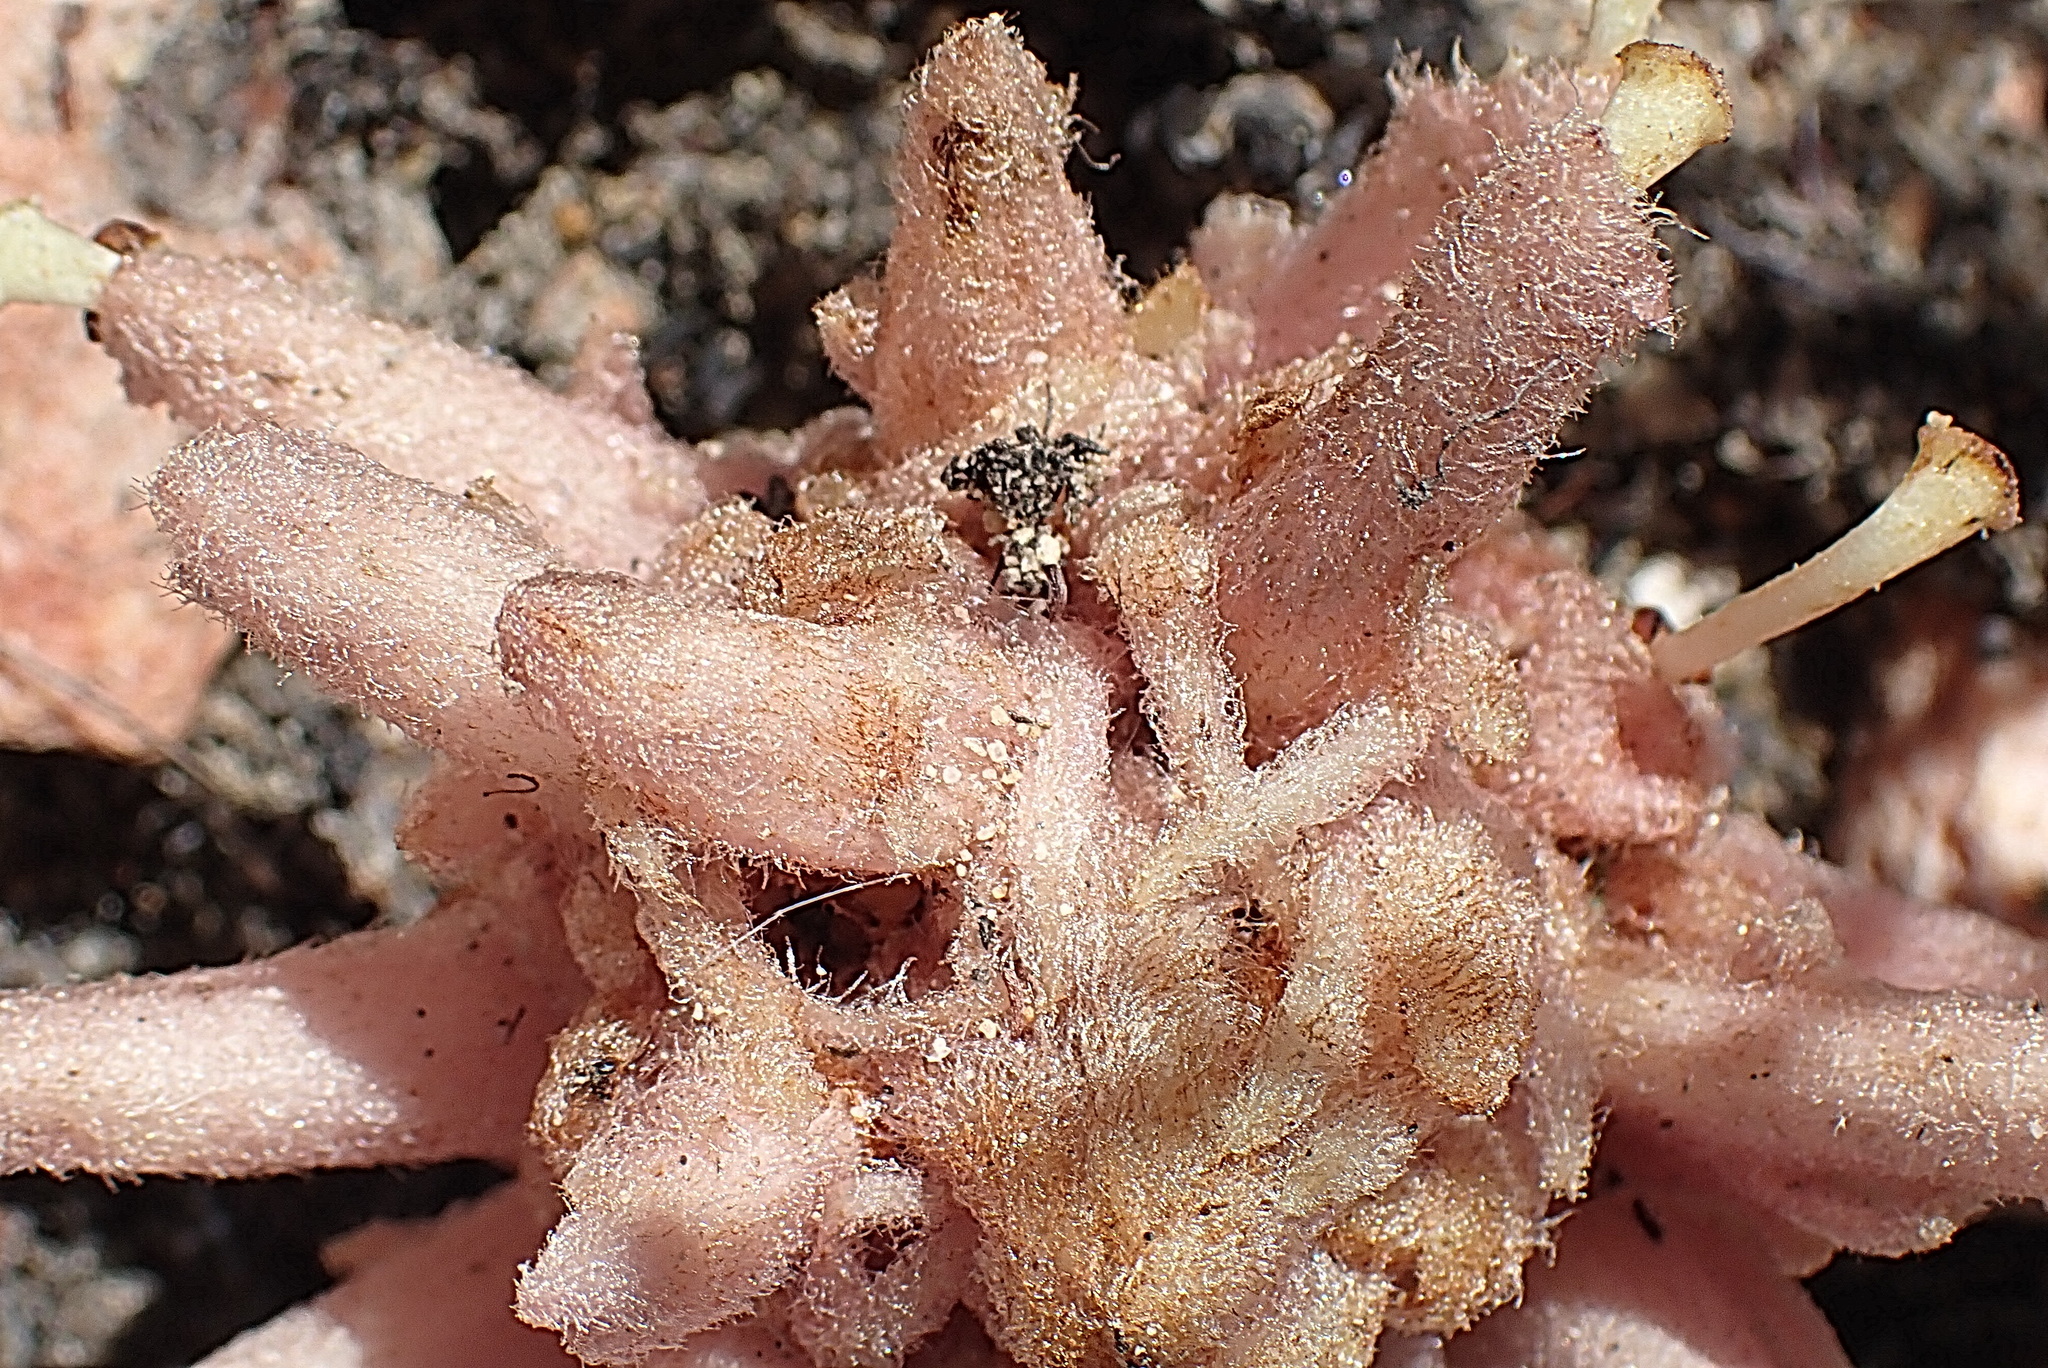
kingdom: Plantae
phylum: Tracheophyta
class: Magnoliopsida
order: Lamiales
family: Orobanchaceae
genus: Hyobanche
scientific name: Hyobanche sanguinea
